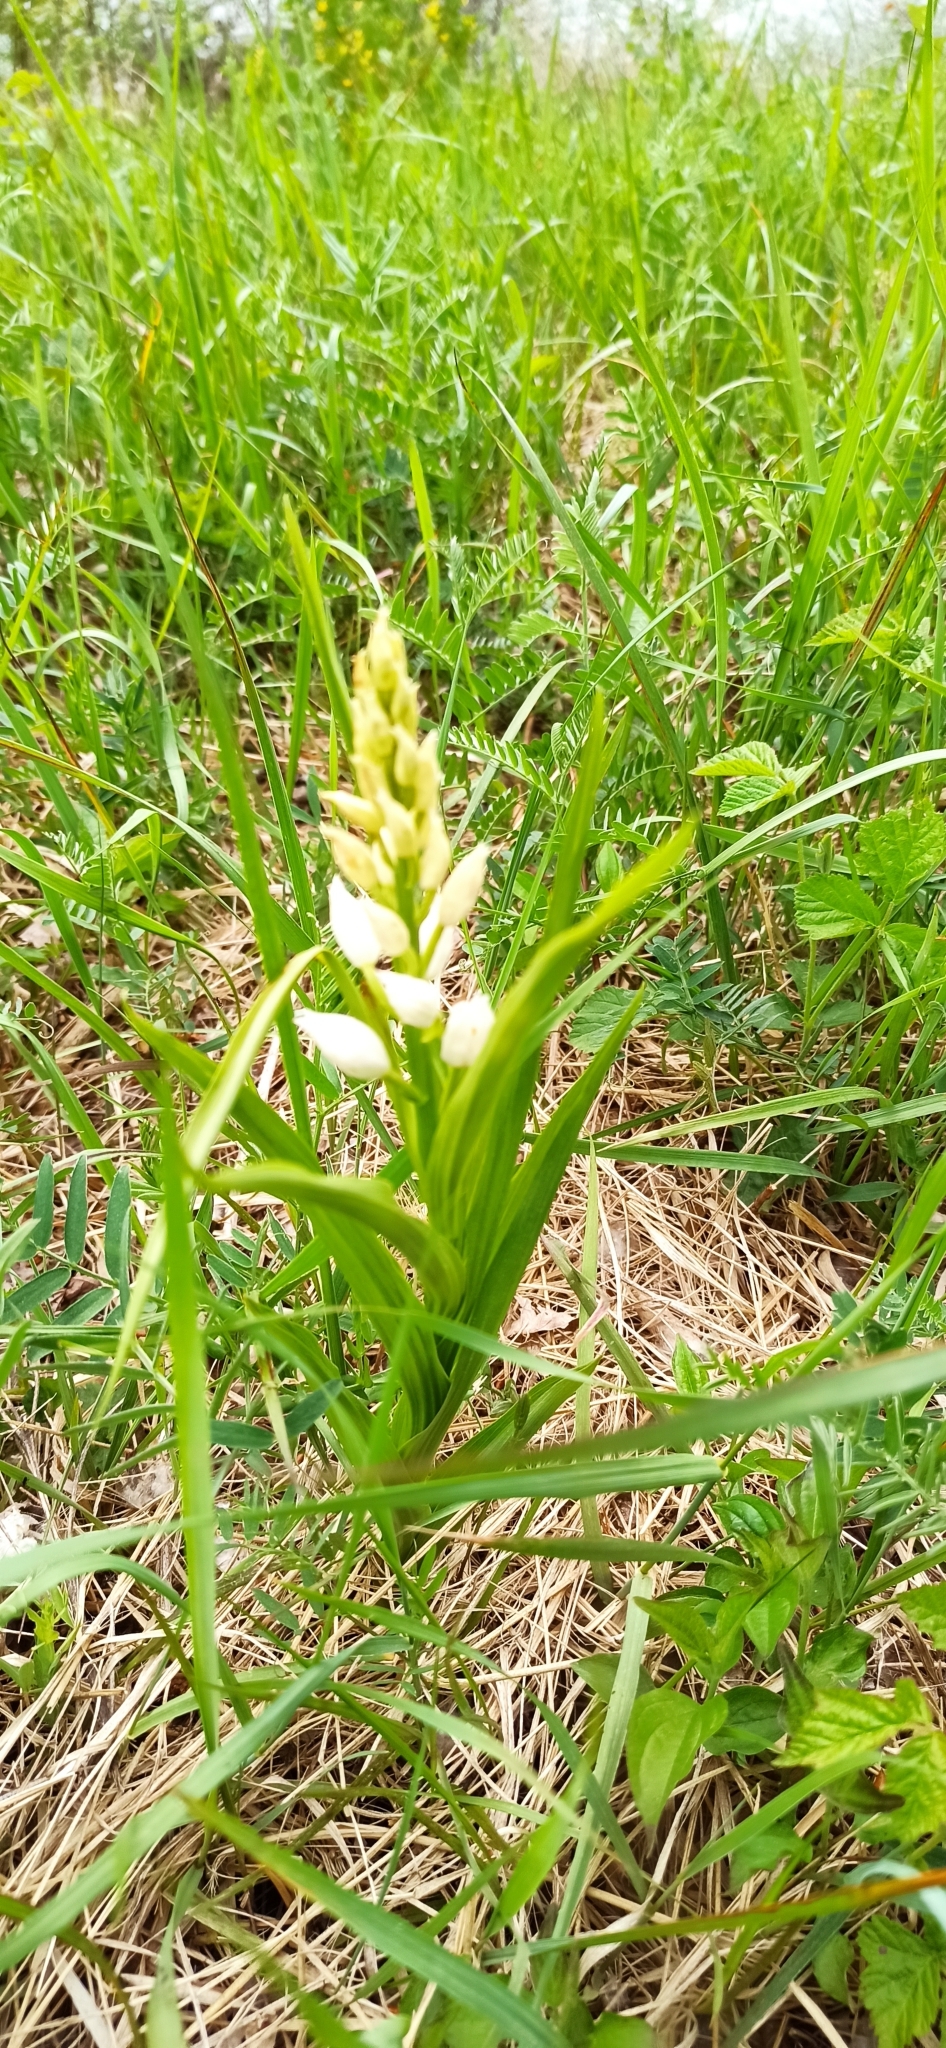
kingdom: Plantae
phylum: Tracheophyta
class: Liliopsida
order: Asparagales
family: Orchidaceae
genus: Cephalanthera
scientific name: Cephalanthera longifolia
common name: Narrow-leaved helleborine
